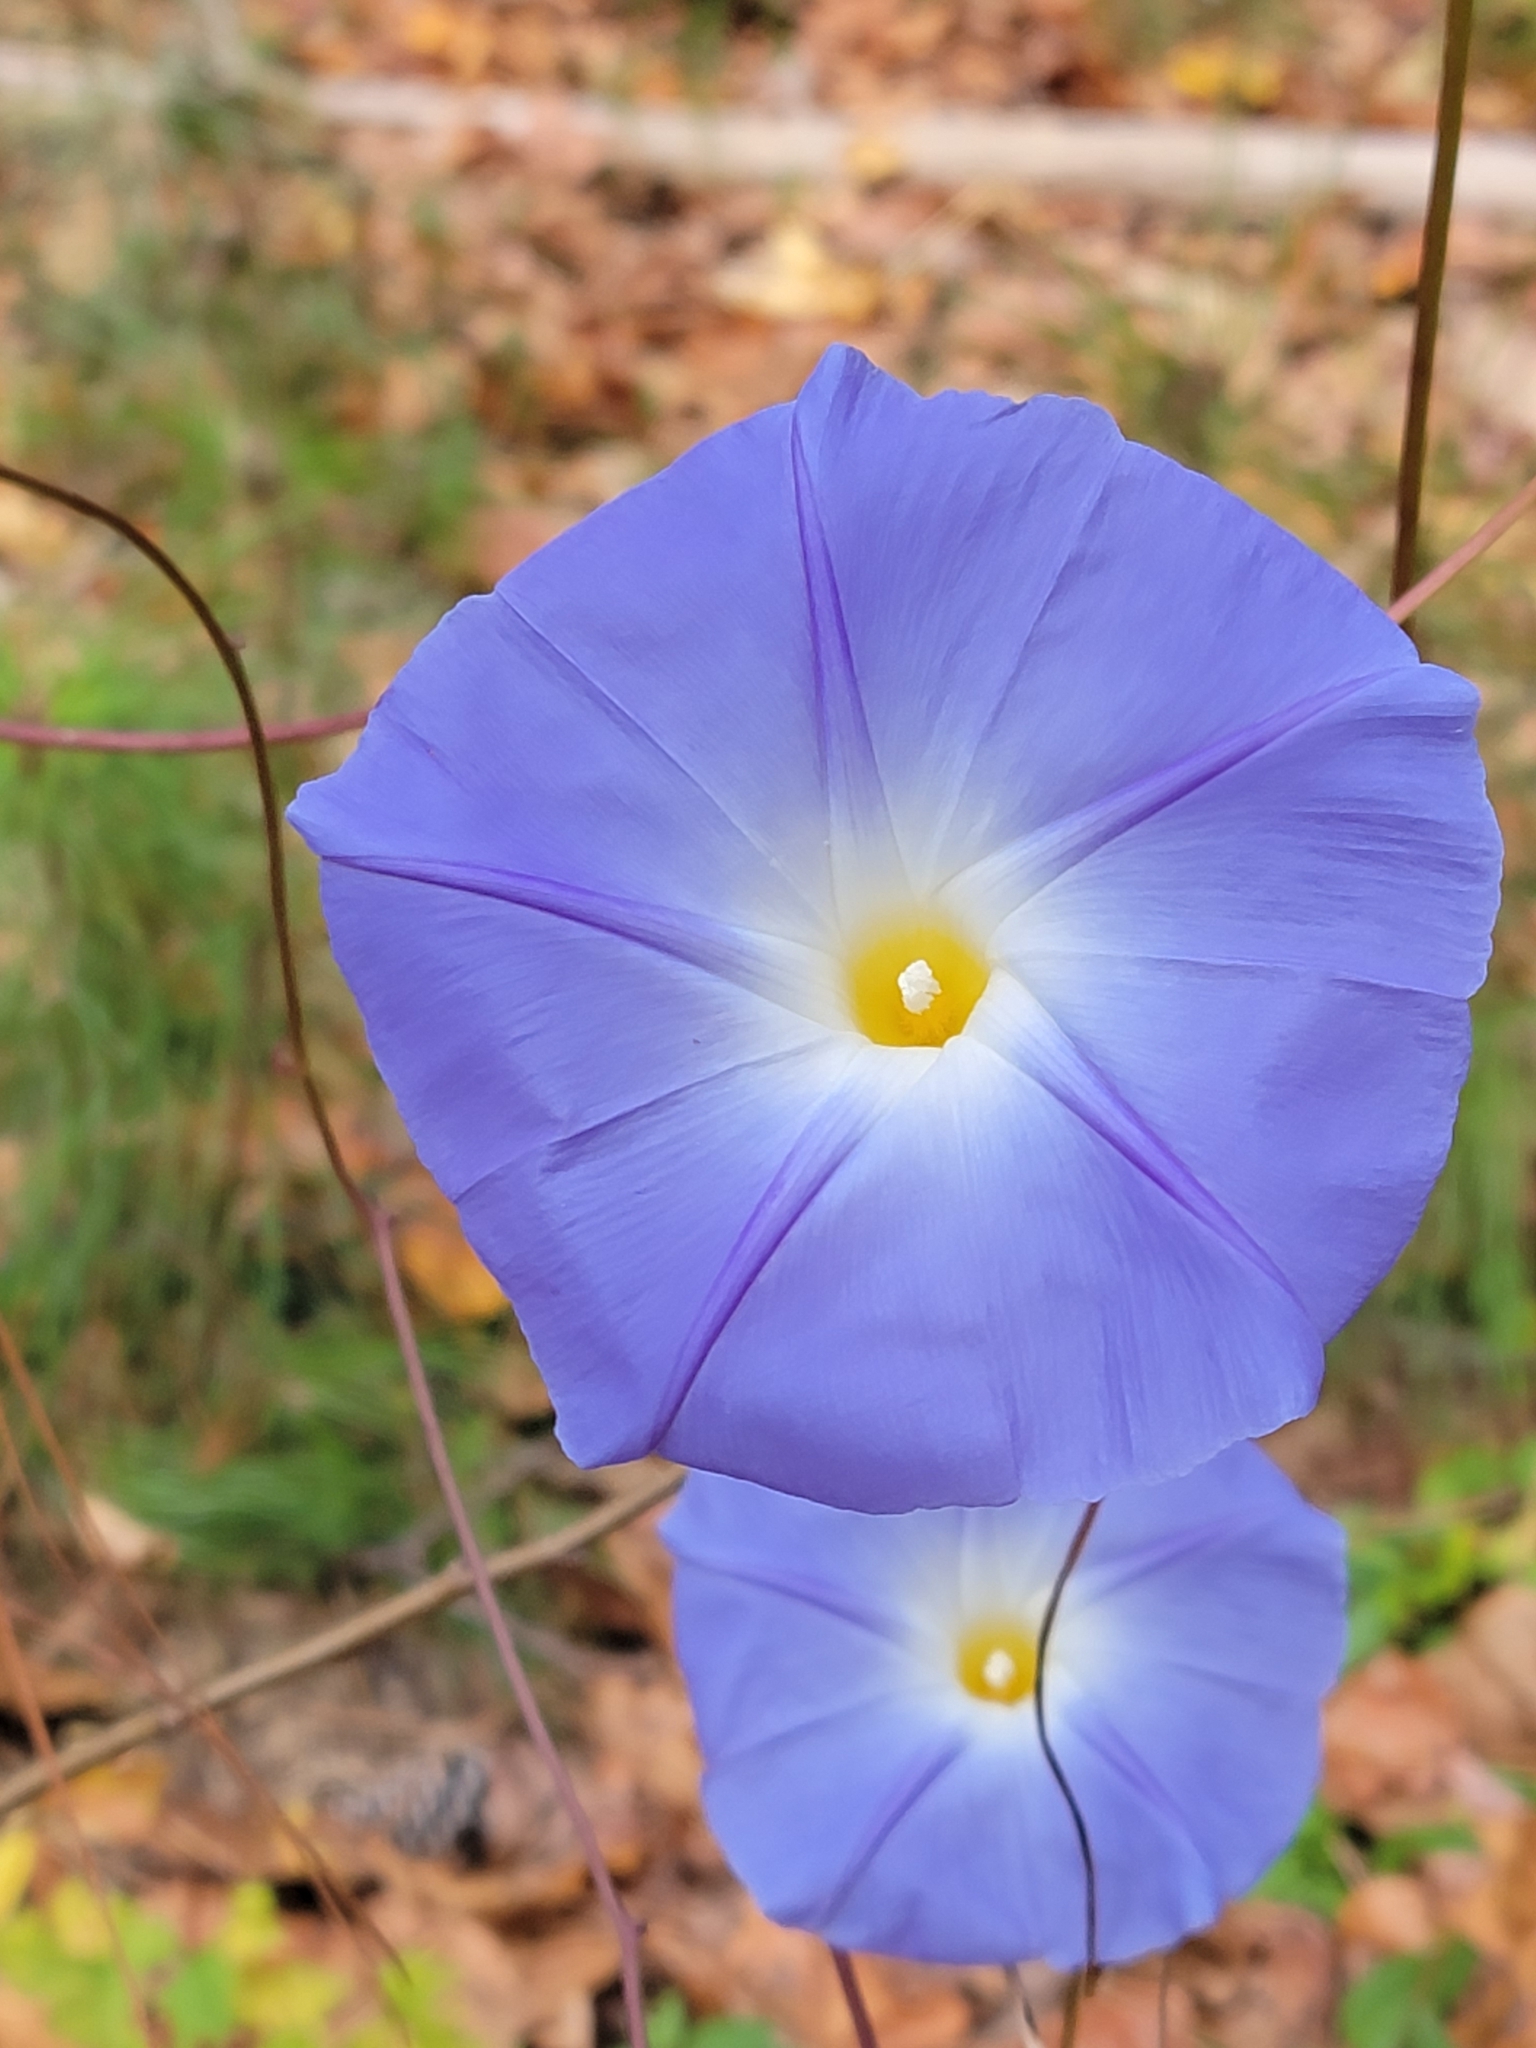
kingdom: Plantae
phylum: Tracheophyta
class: Magnoliopsida
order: Solanales
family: Convolvulaceae
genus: Ipomoea
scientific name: Ipomoea tricolor
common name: Morning-glory
